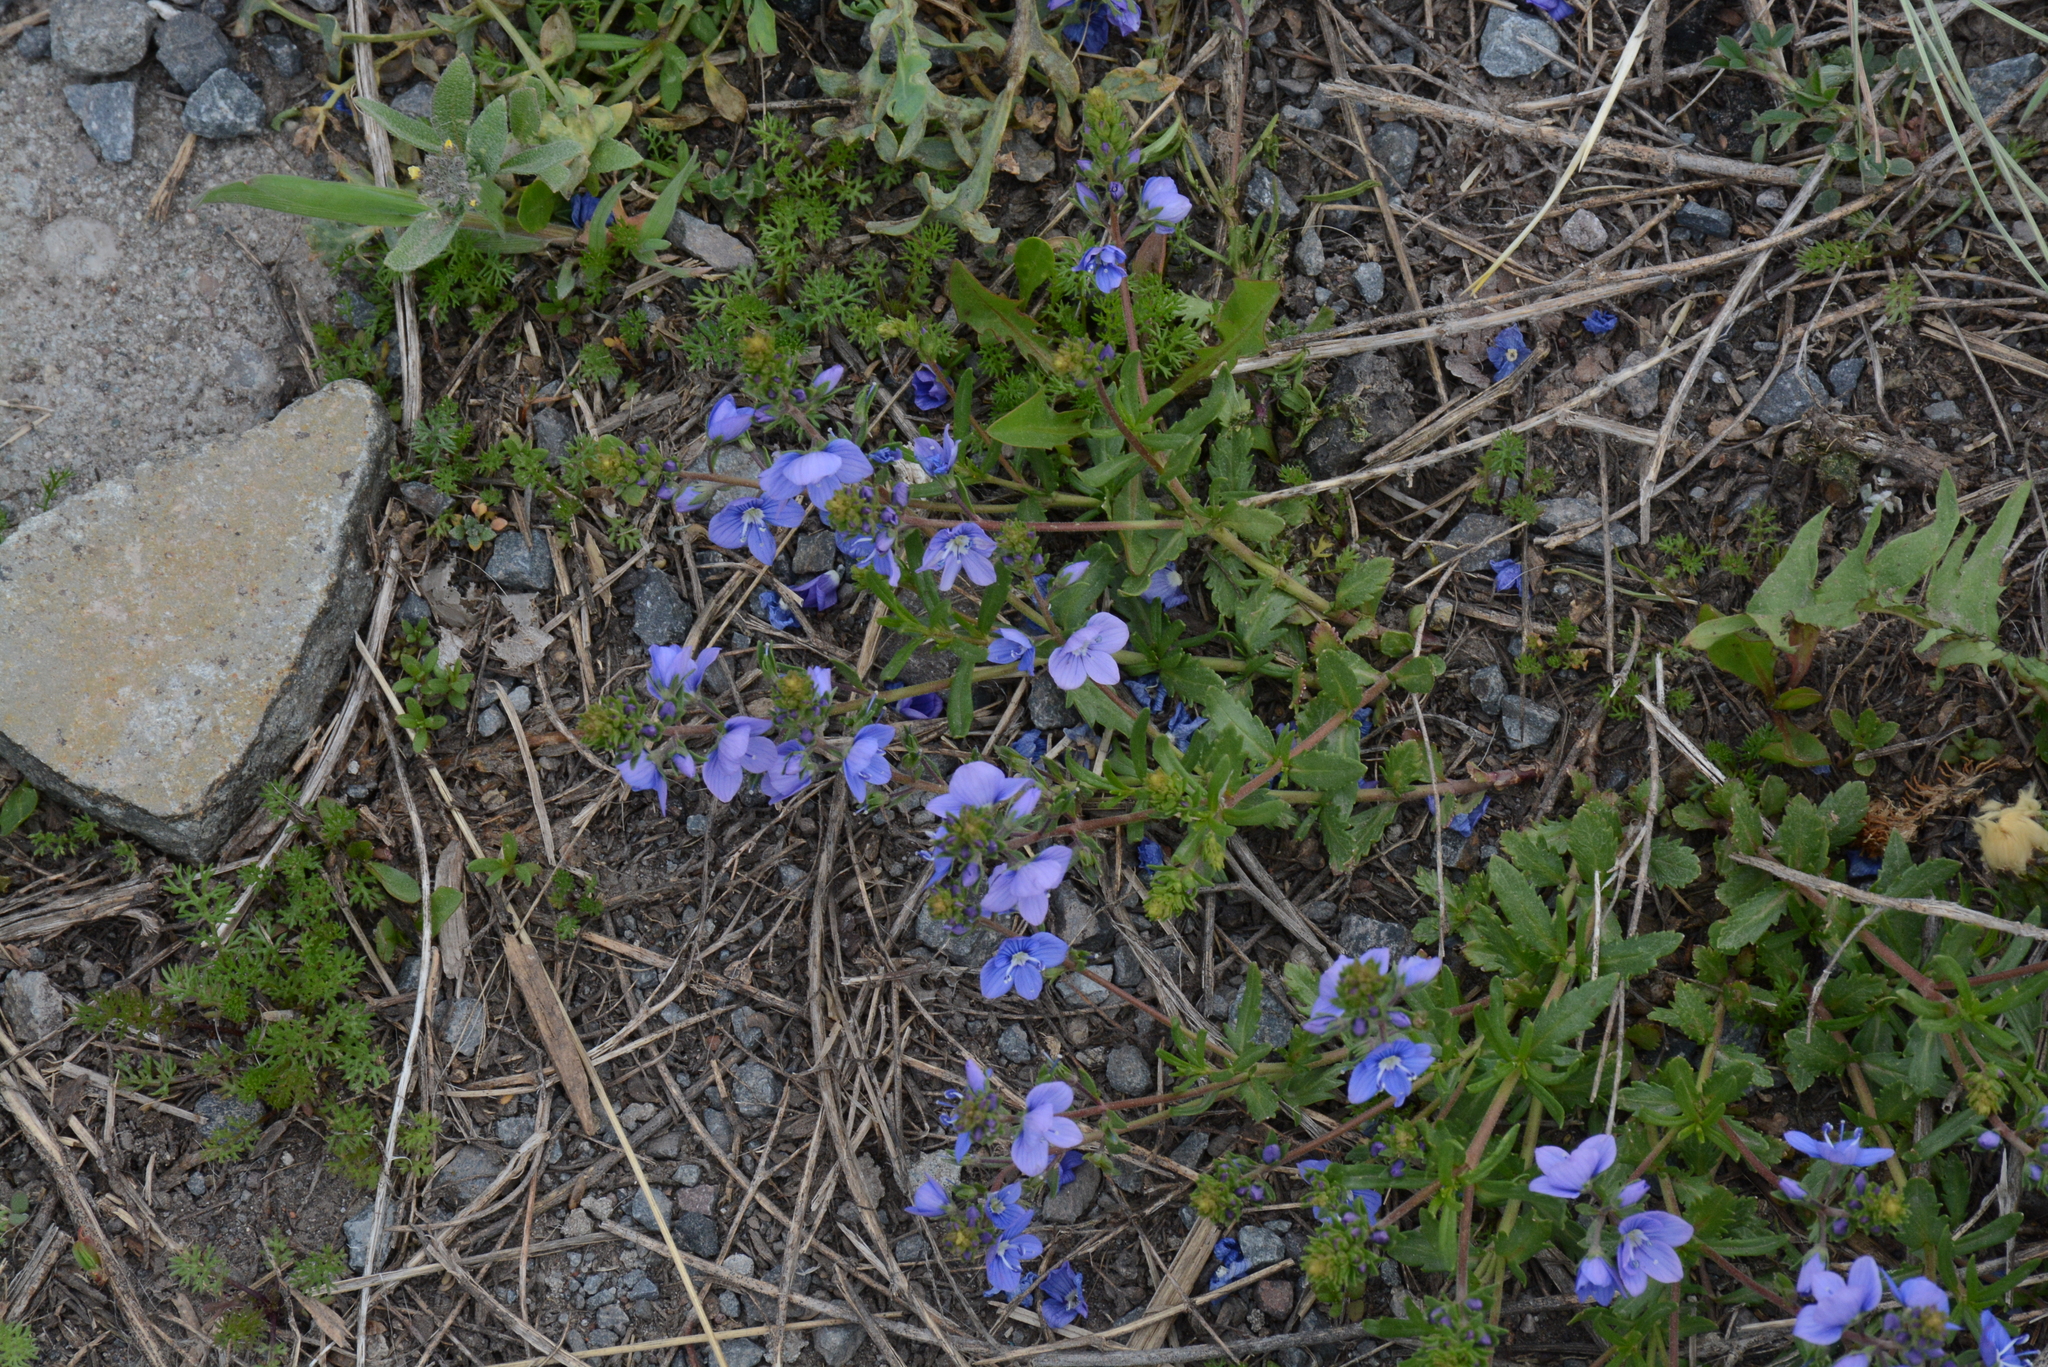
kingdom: Plantae
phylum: Tracheophyta
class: Magnoliopsida
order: Lamiales
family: Plantaginaceae
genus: Veronica
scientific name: Veronica orientalis
